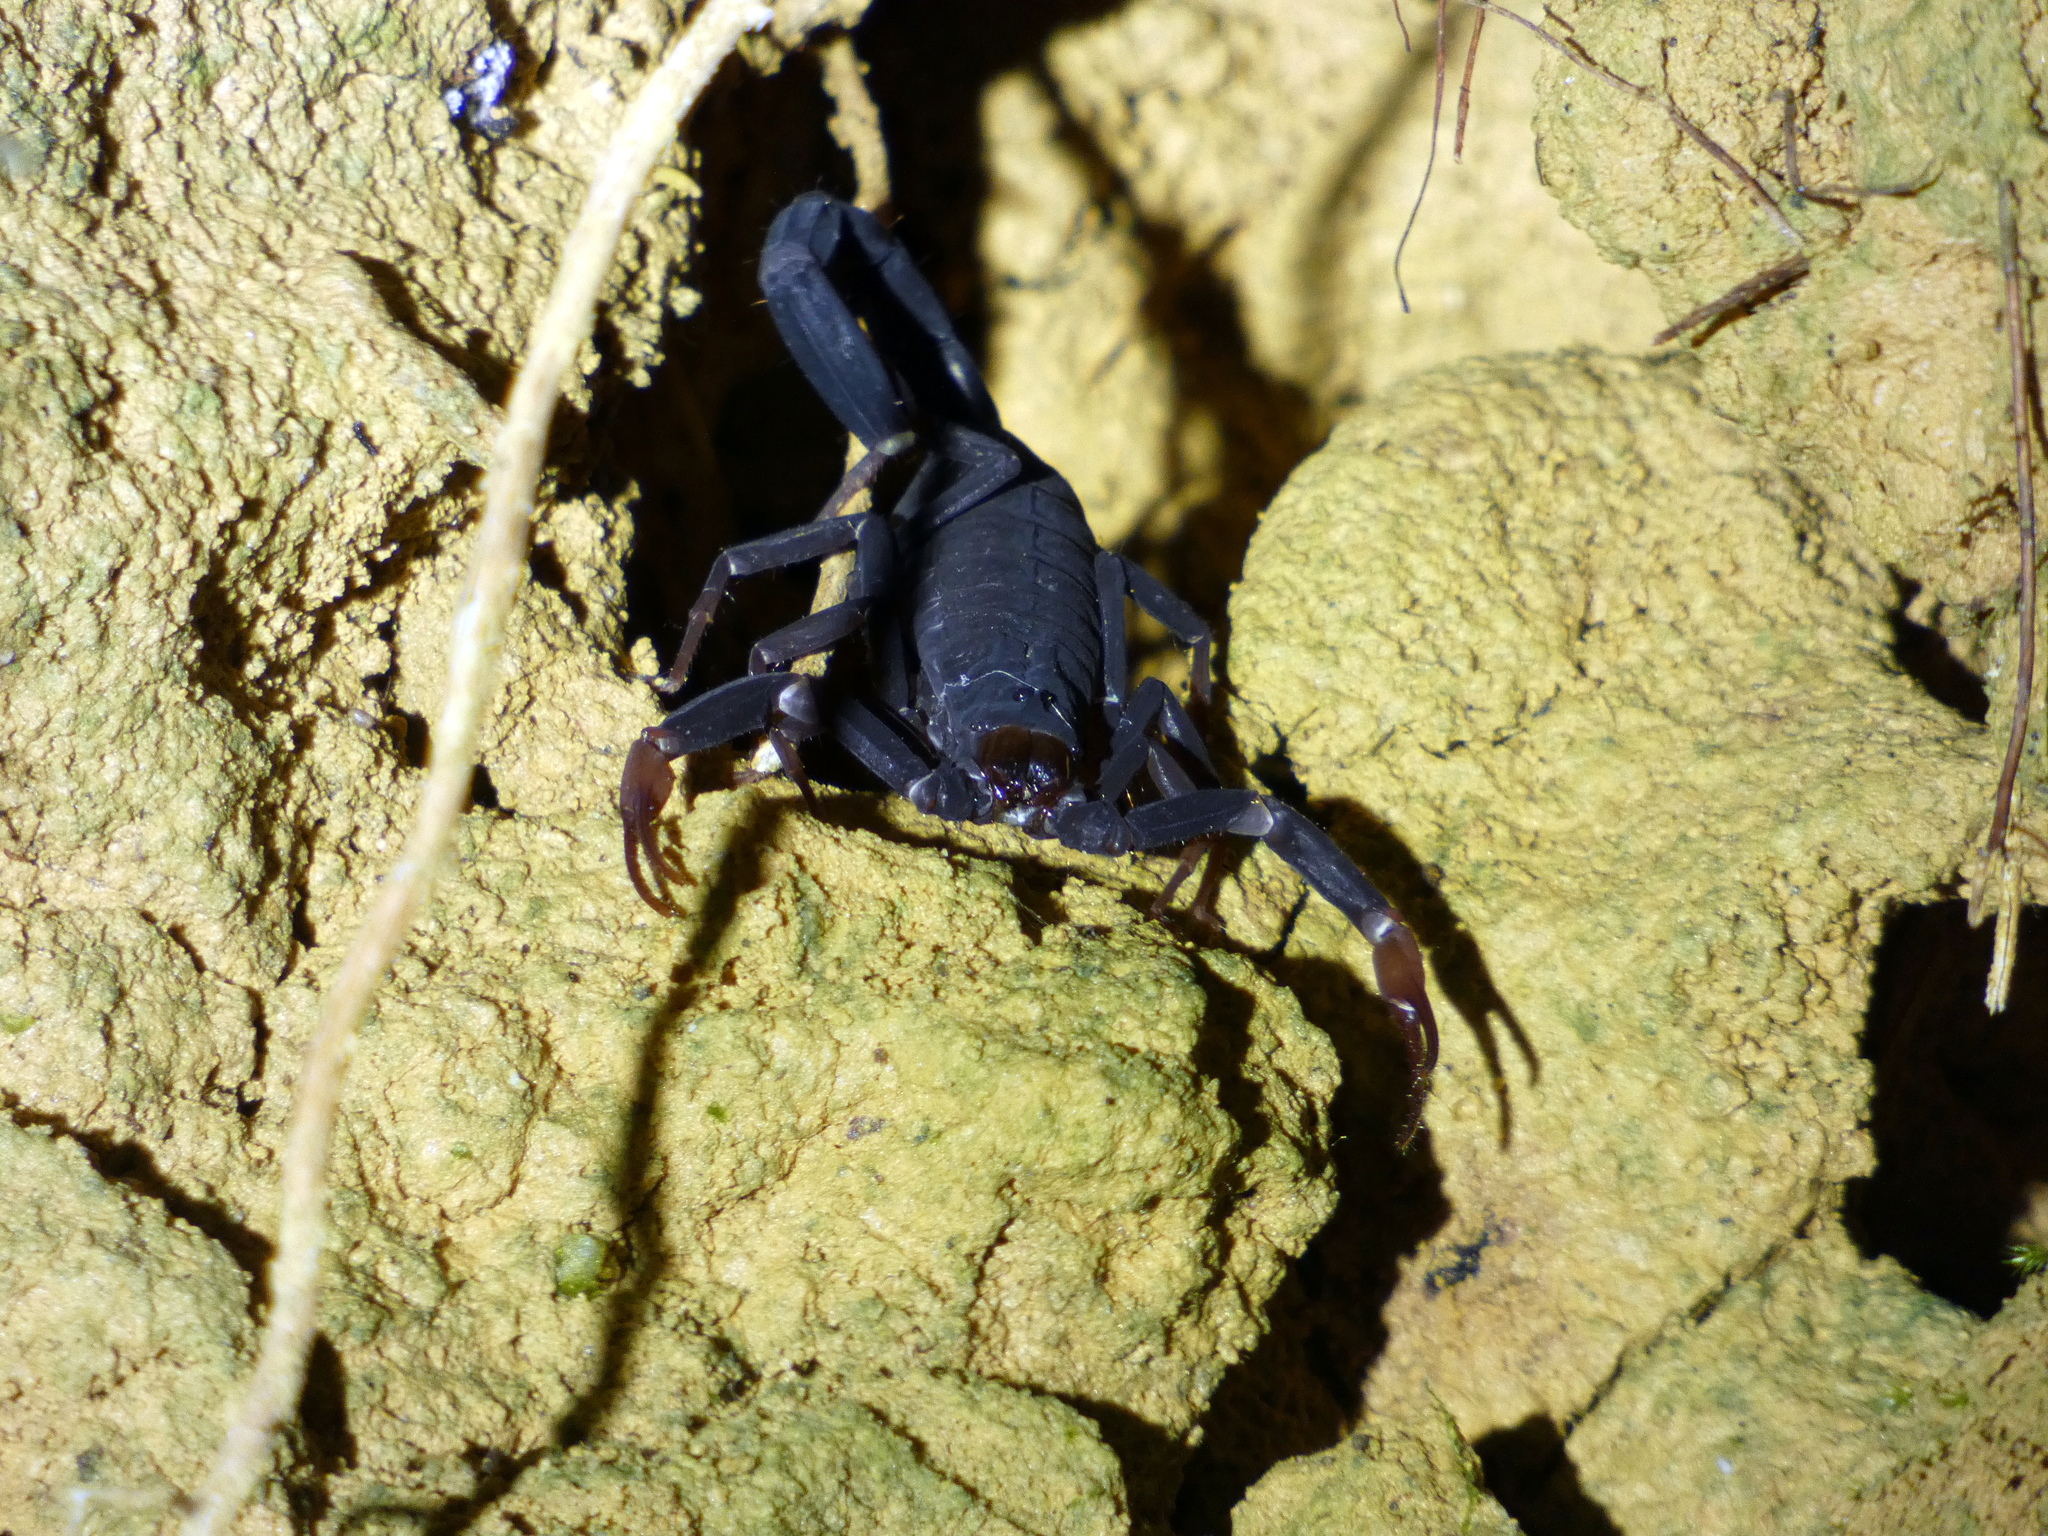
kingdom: Animalia
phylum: Arthropoda
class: Arachnida
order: Scorpiones
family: Buthidae
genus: Spelaeolychas
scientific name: Spelaeolychas hosei
